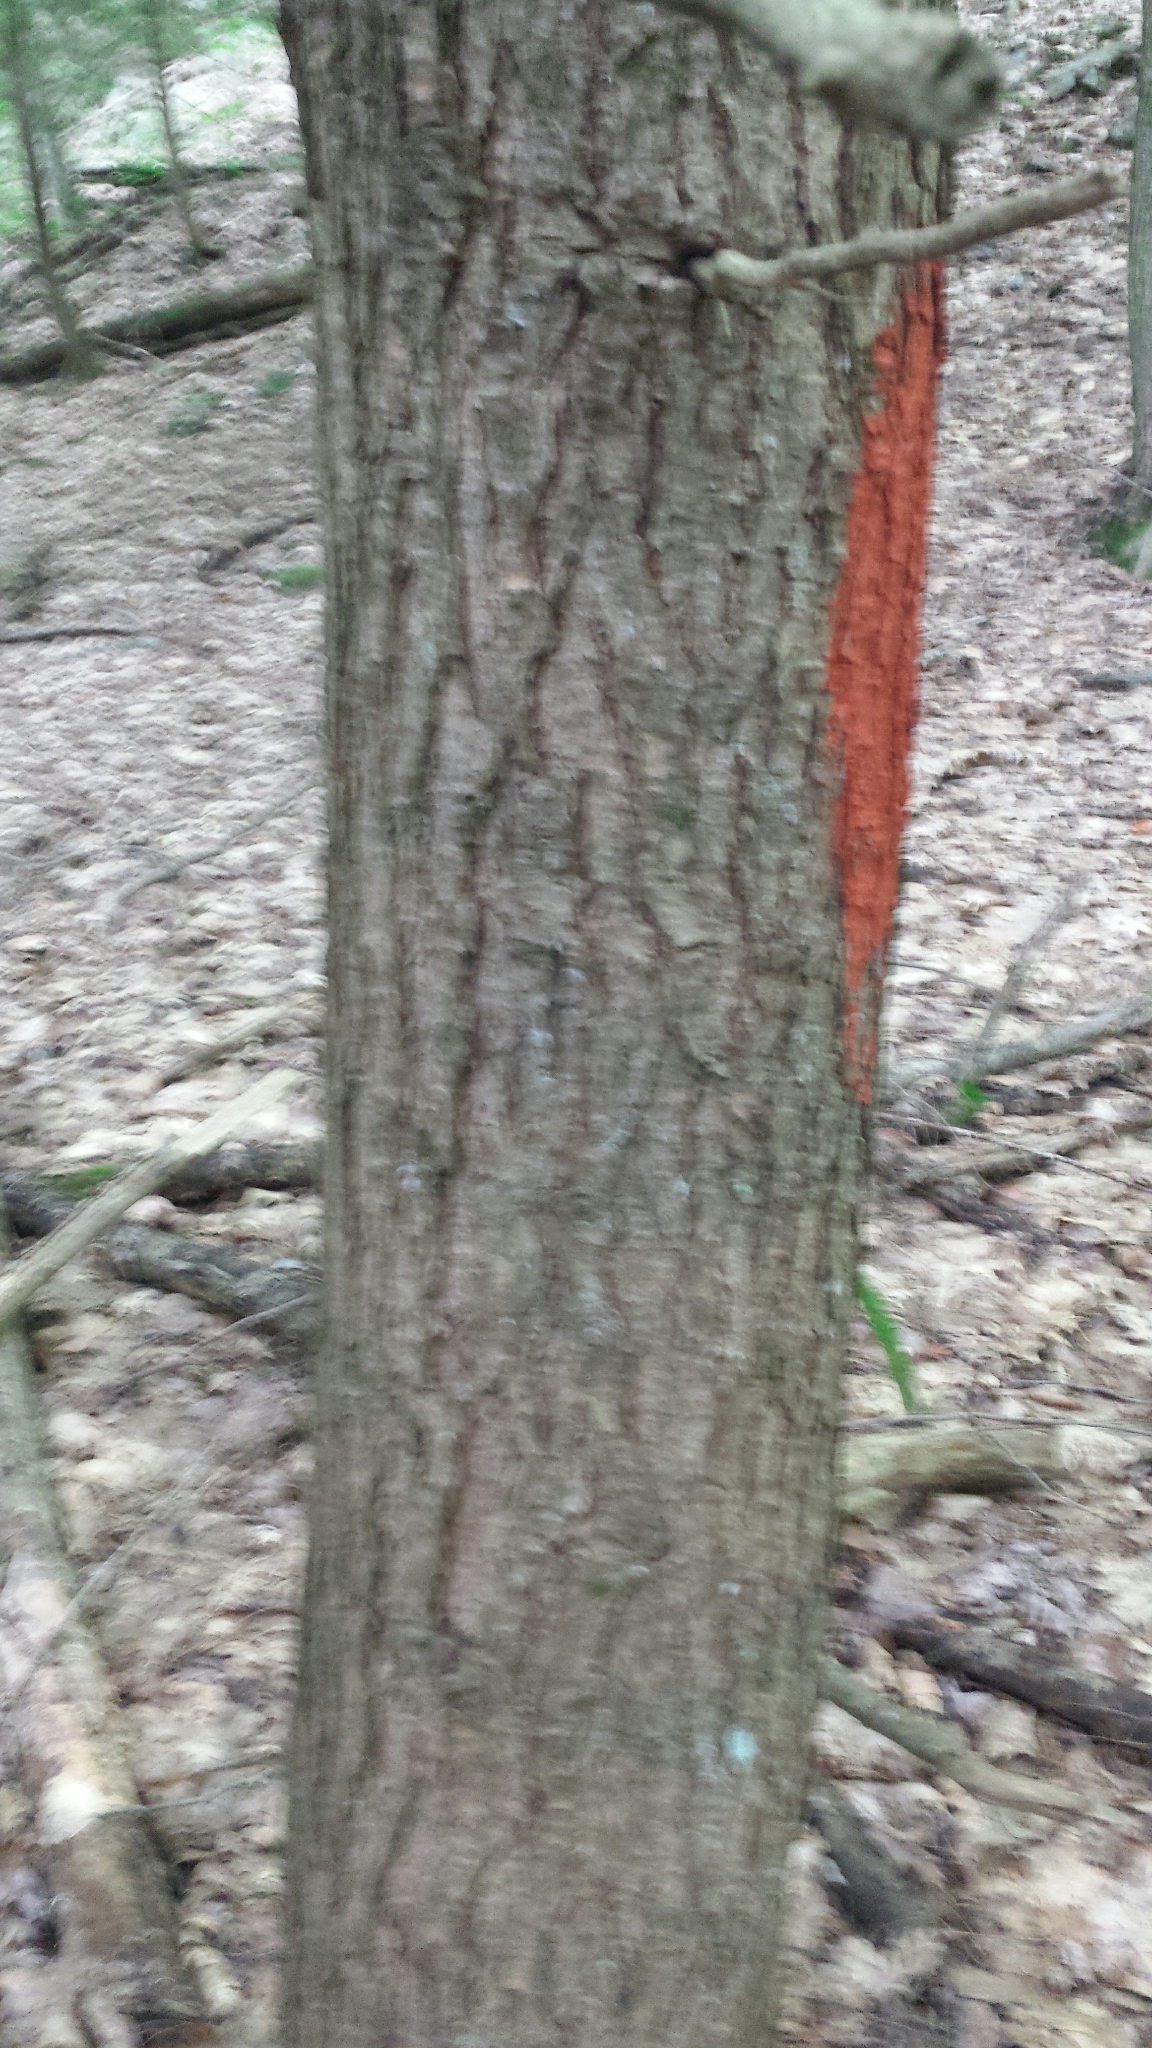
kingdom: Plantae
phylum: Tracheophyta
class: Pinopsida
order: Pinales
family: Pinaceae
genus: Tsuga
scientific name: Tsuga canadensis
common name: Eastern hemlock
